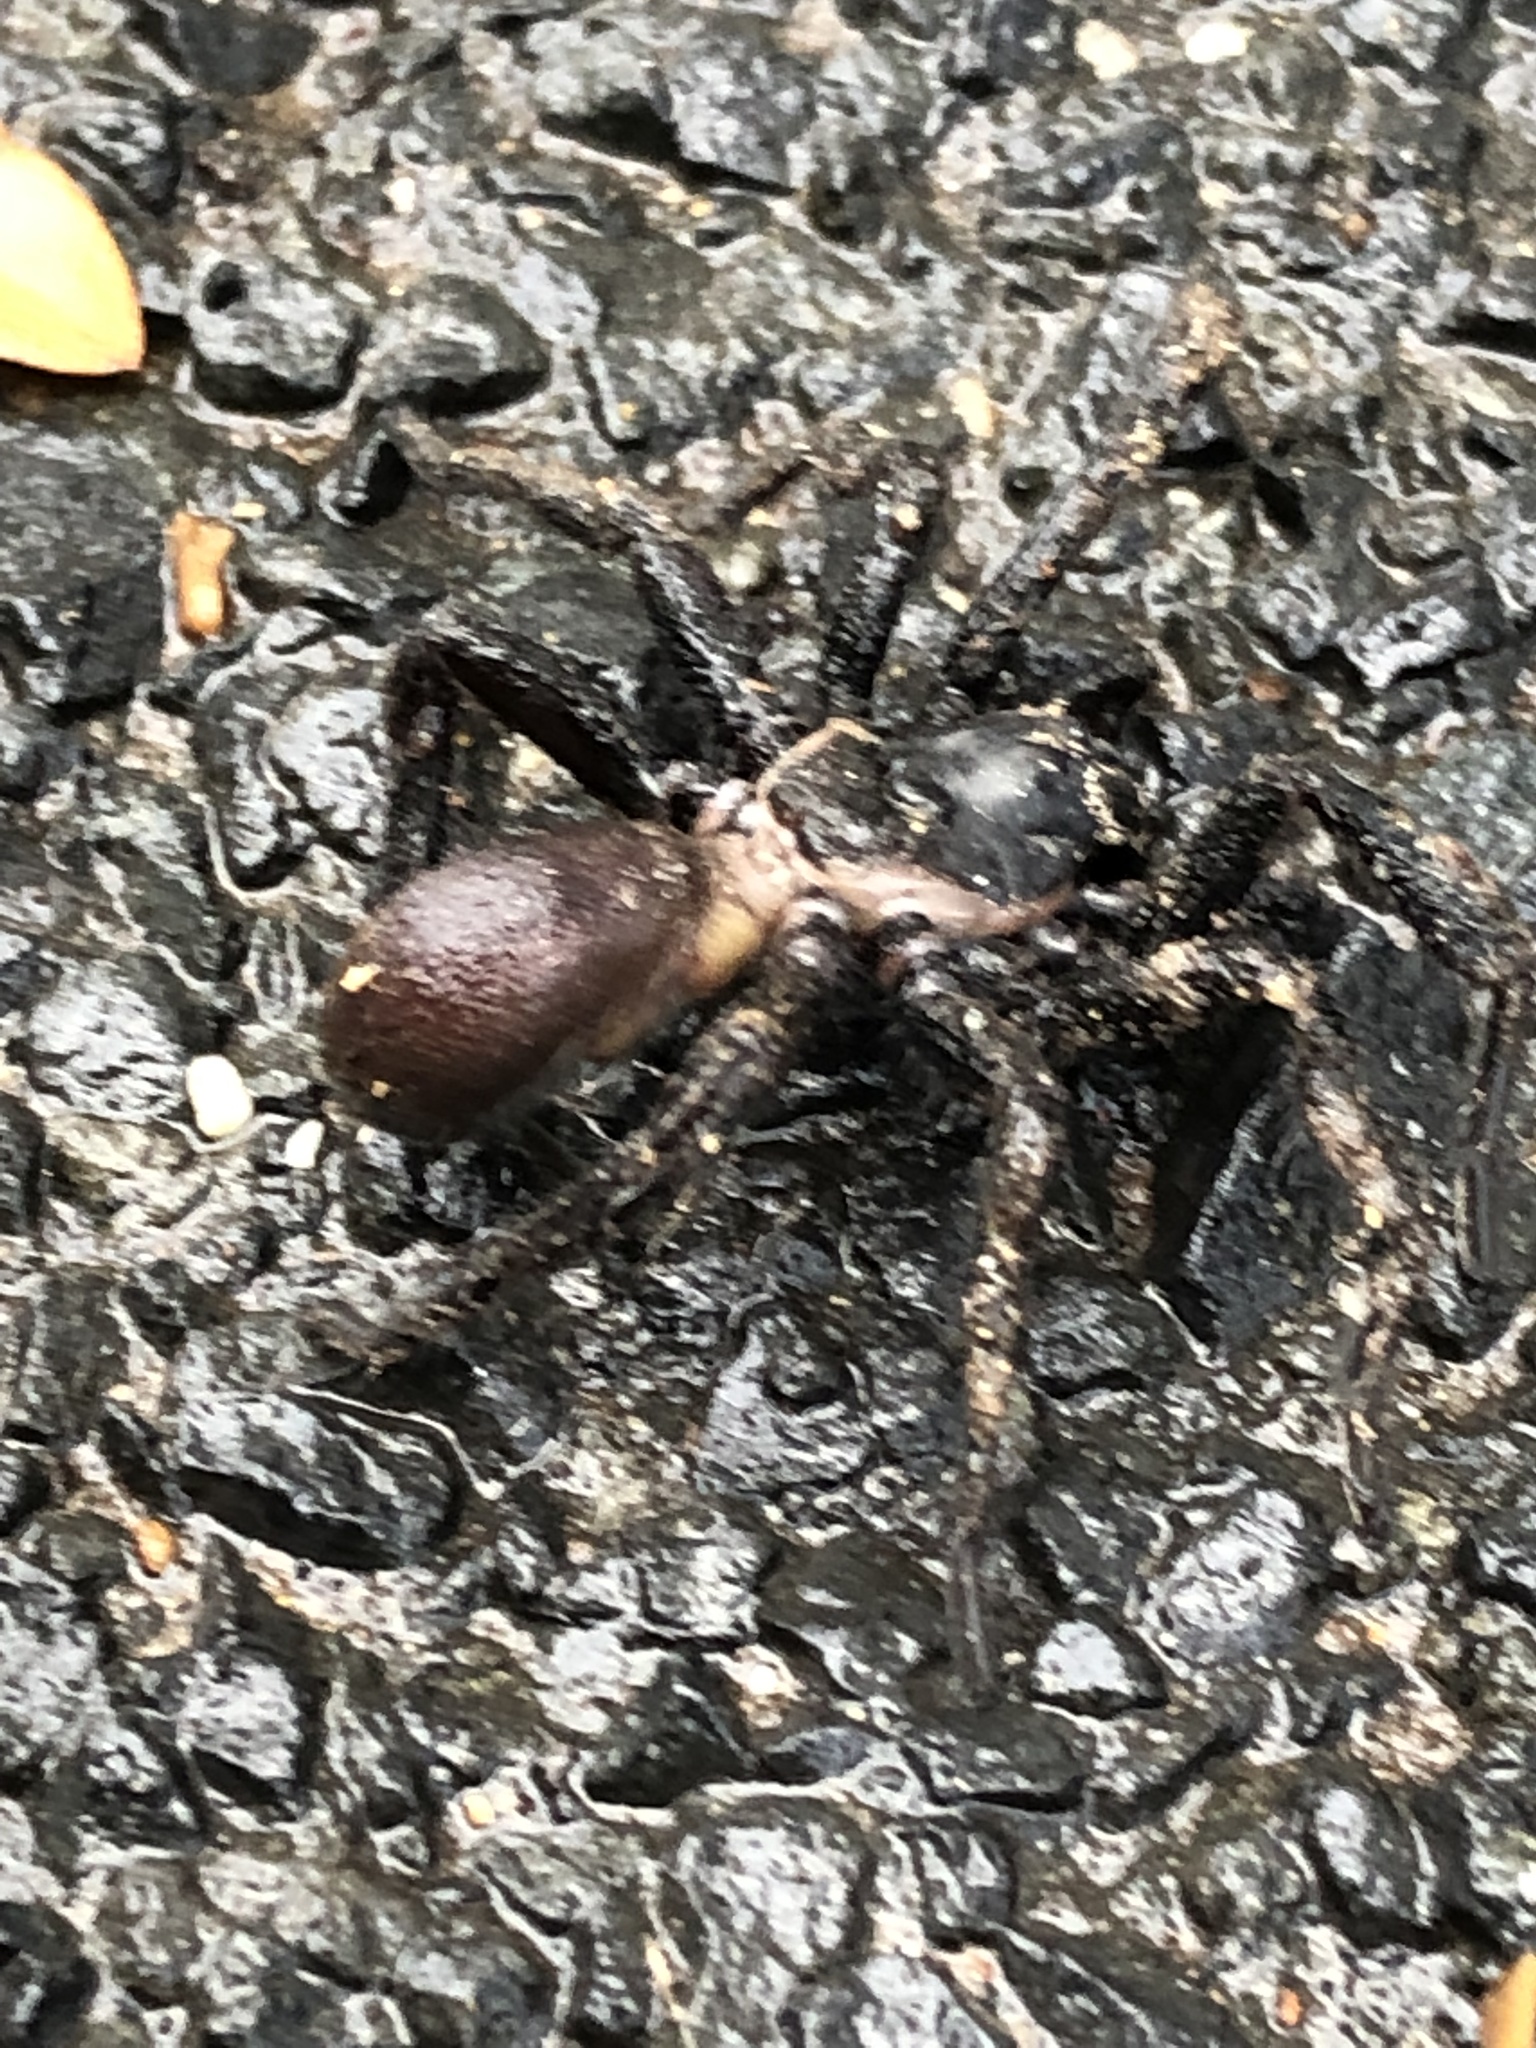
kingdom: Animalia
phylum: Arthropoda
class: Arachnida
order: Araneae
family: Euctenizidae
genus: Eucteniza
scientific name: Eucteniza relata
